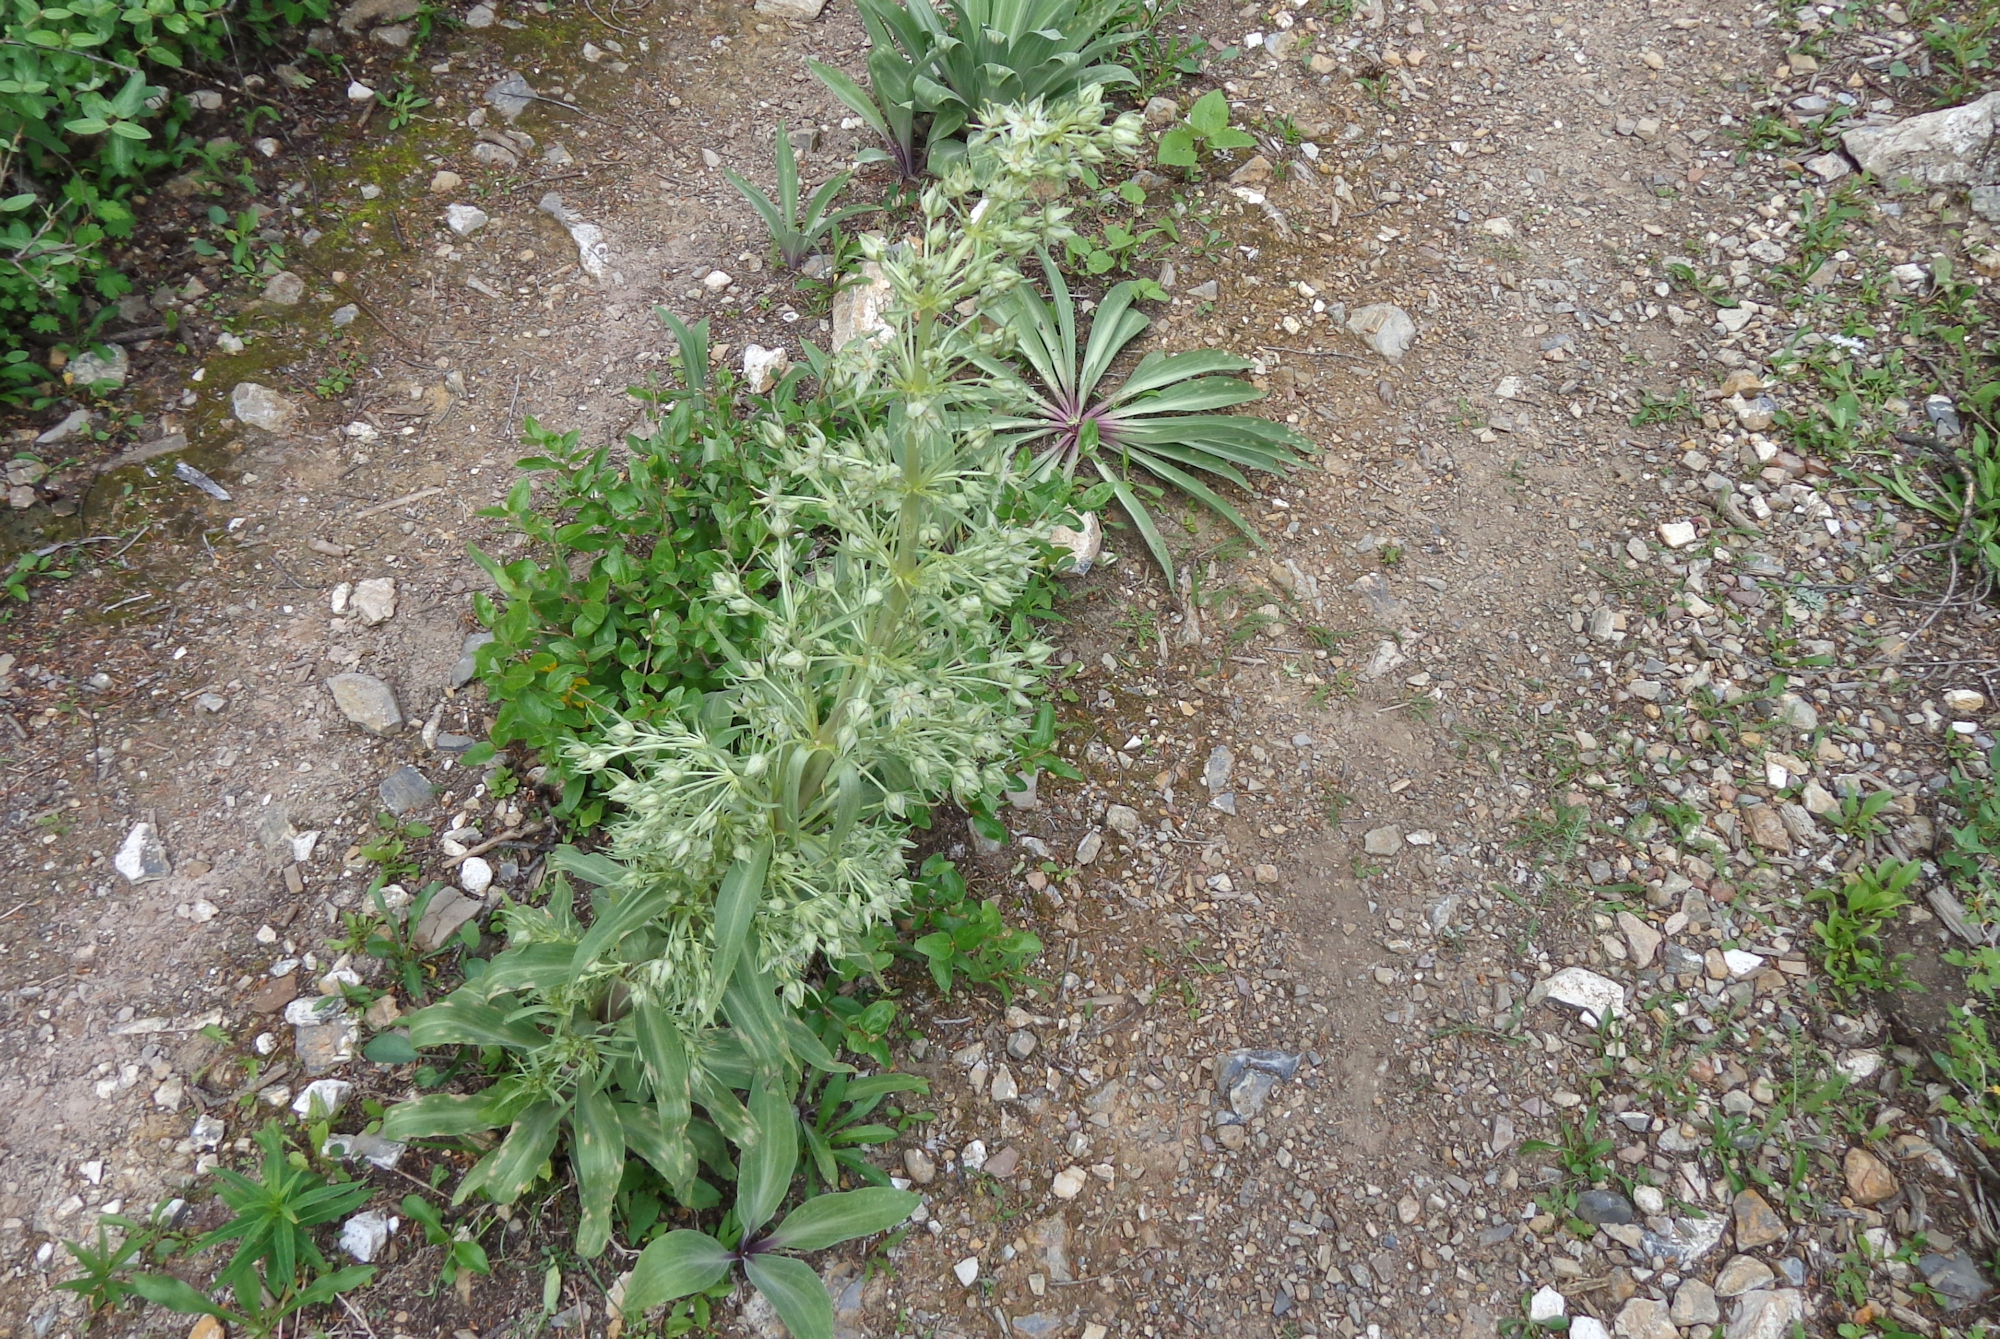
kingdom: Plantae
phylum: Tracheophyta
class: Magnoliopsida
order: Gentianales
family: Gentianaceae
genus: Frasera
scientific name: Frasera speciosa
